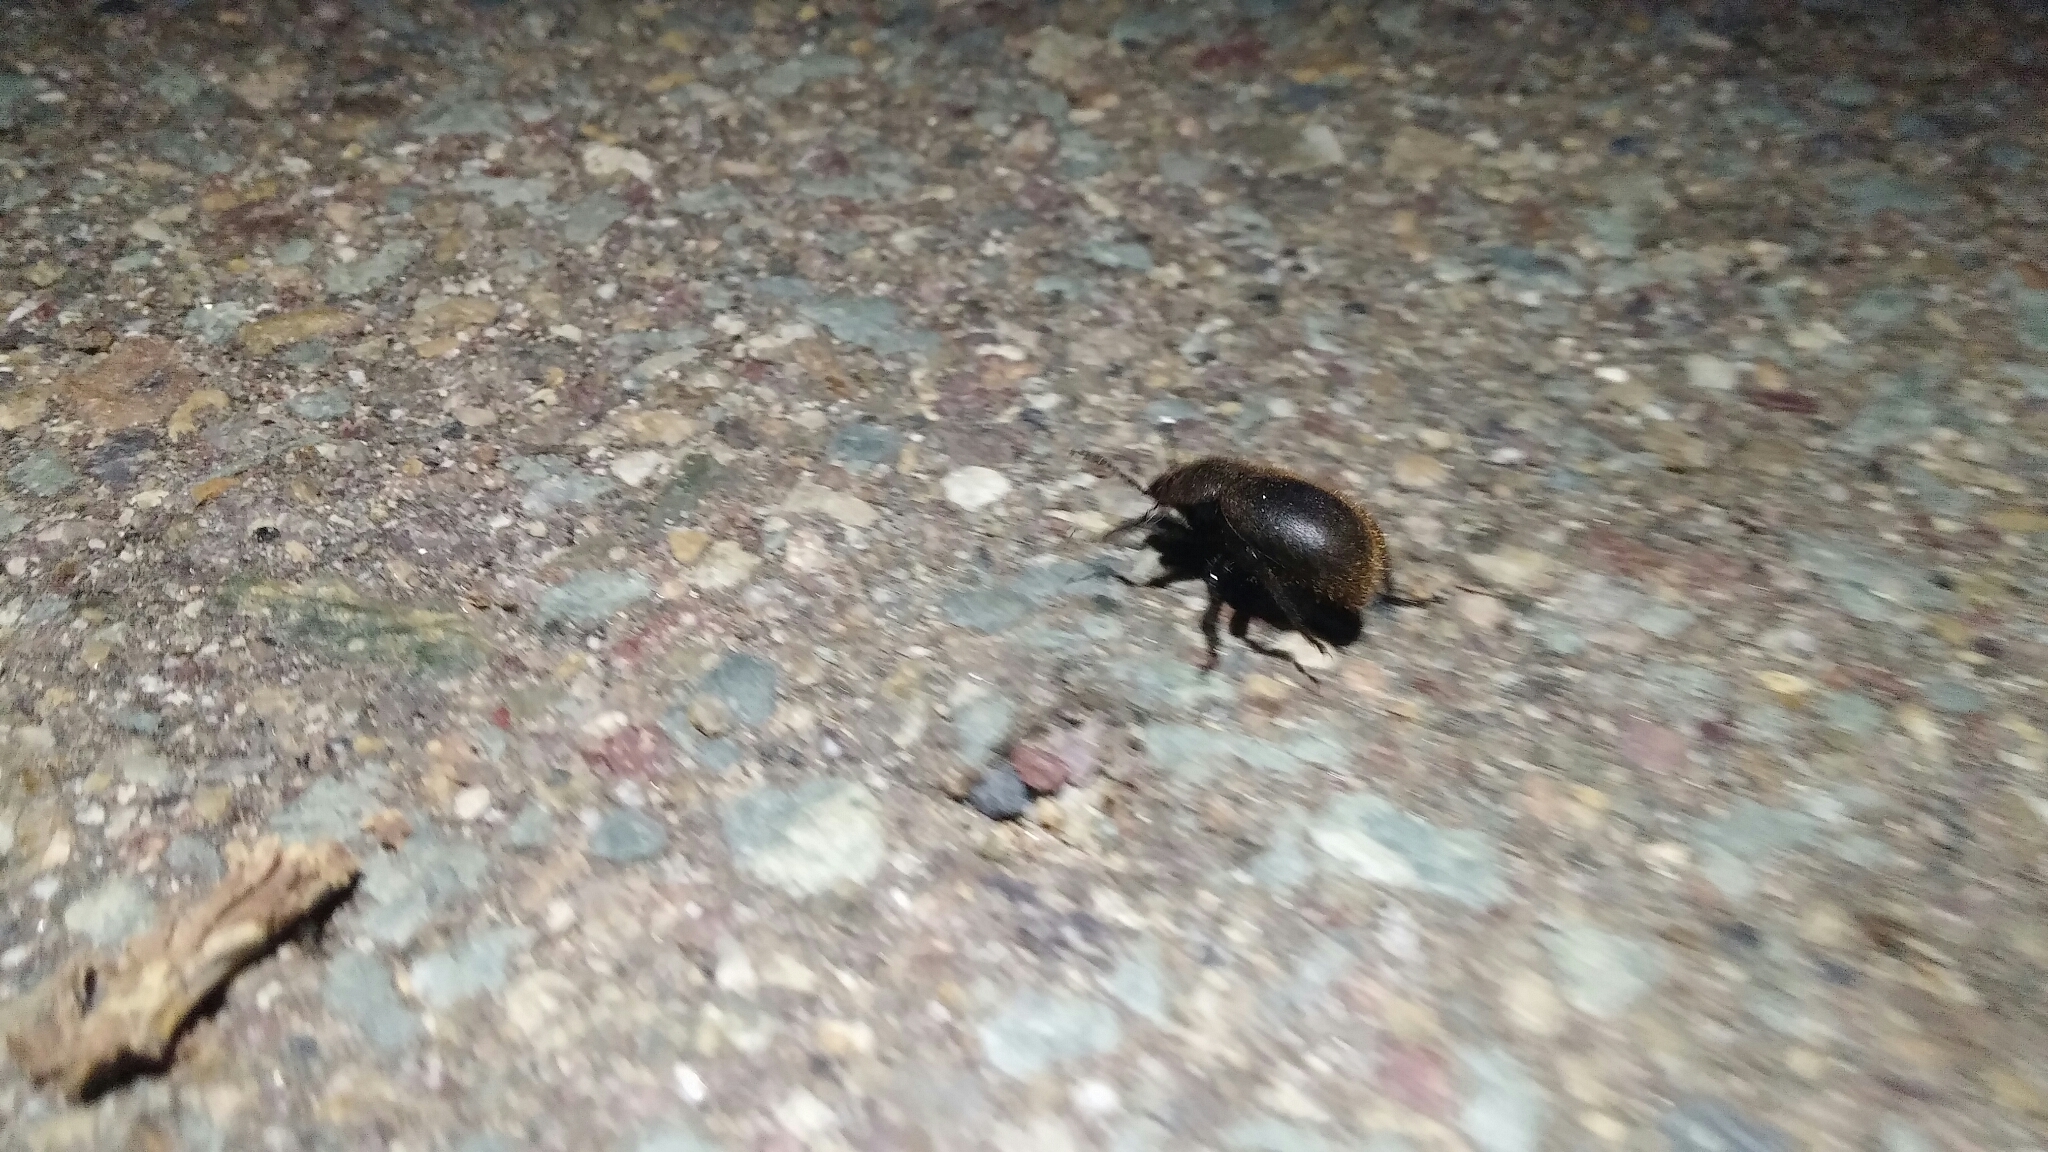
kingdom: Animalia
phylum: Arthropoda
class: Insecta
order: Coleoptera
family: Tenebrionidae
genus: Eleodes
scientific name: Eleodes osculans
